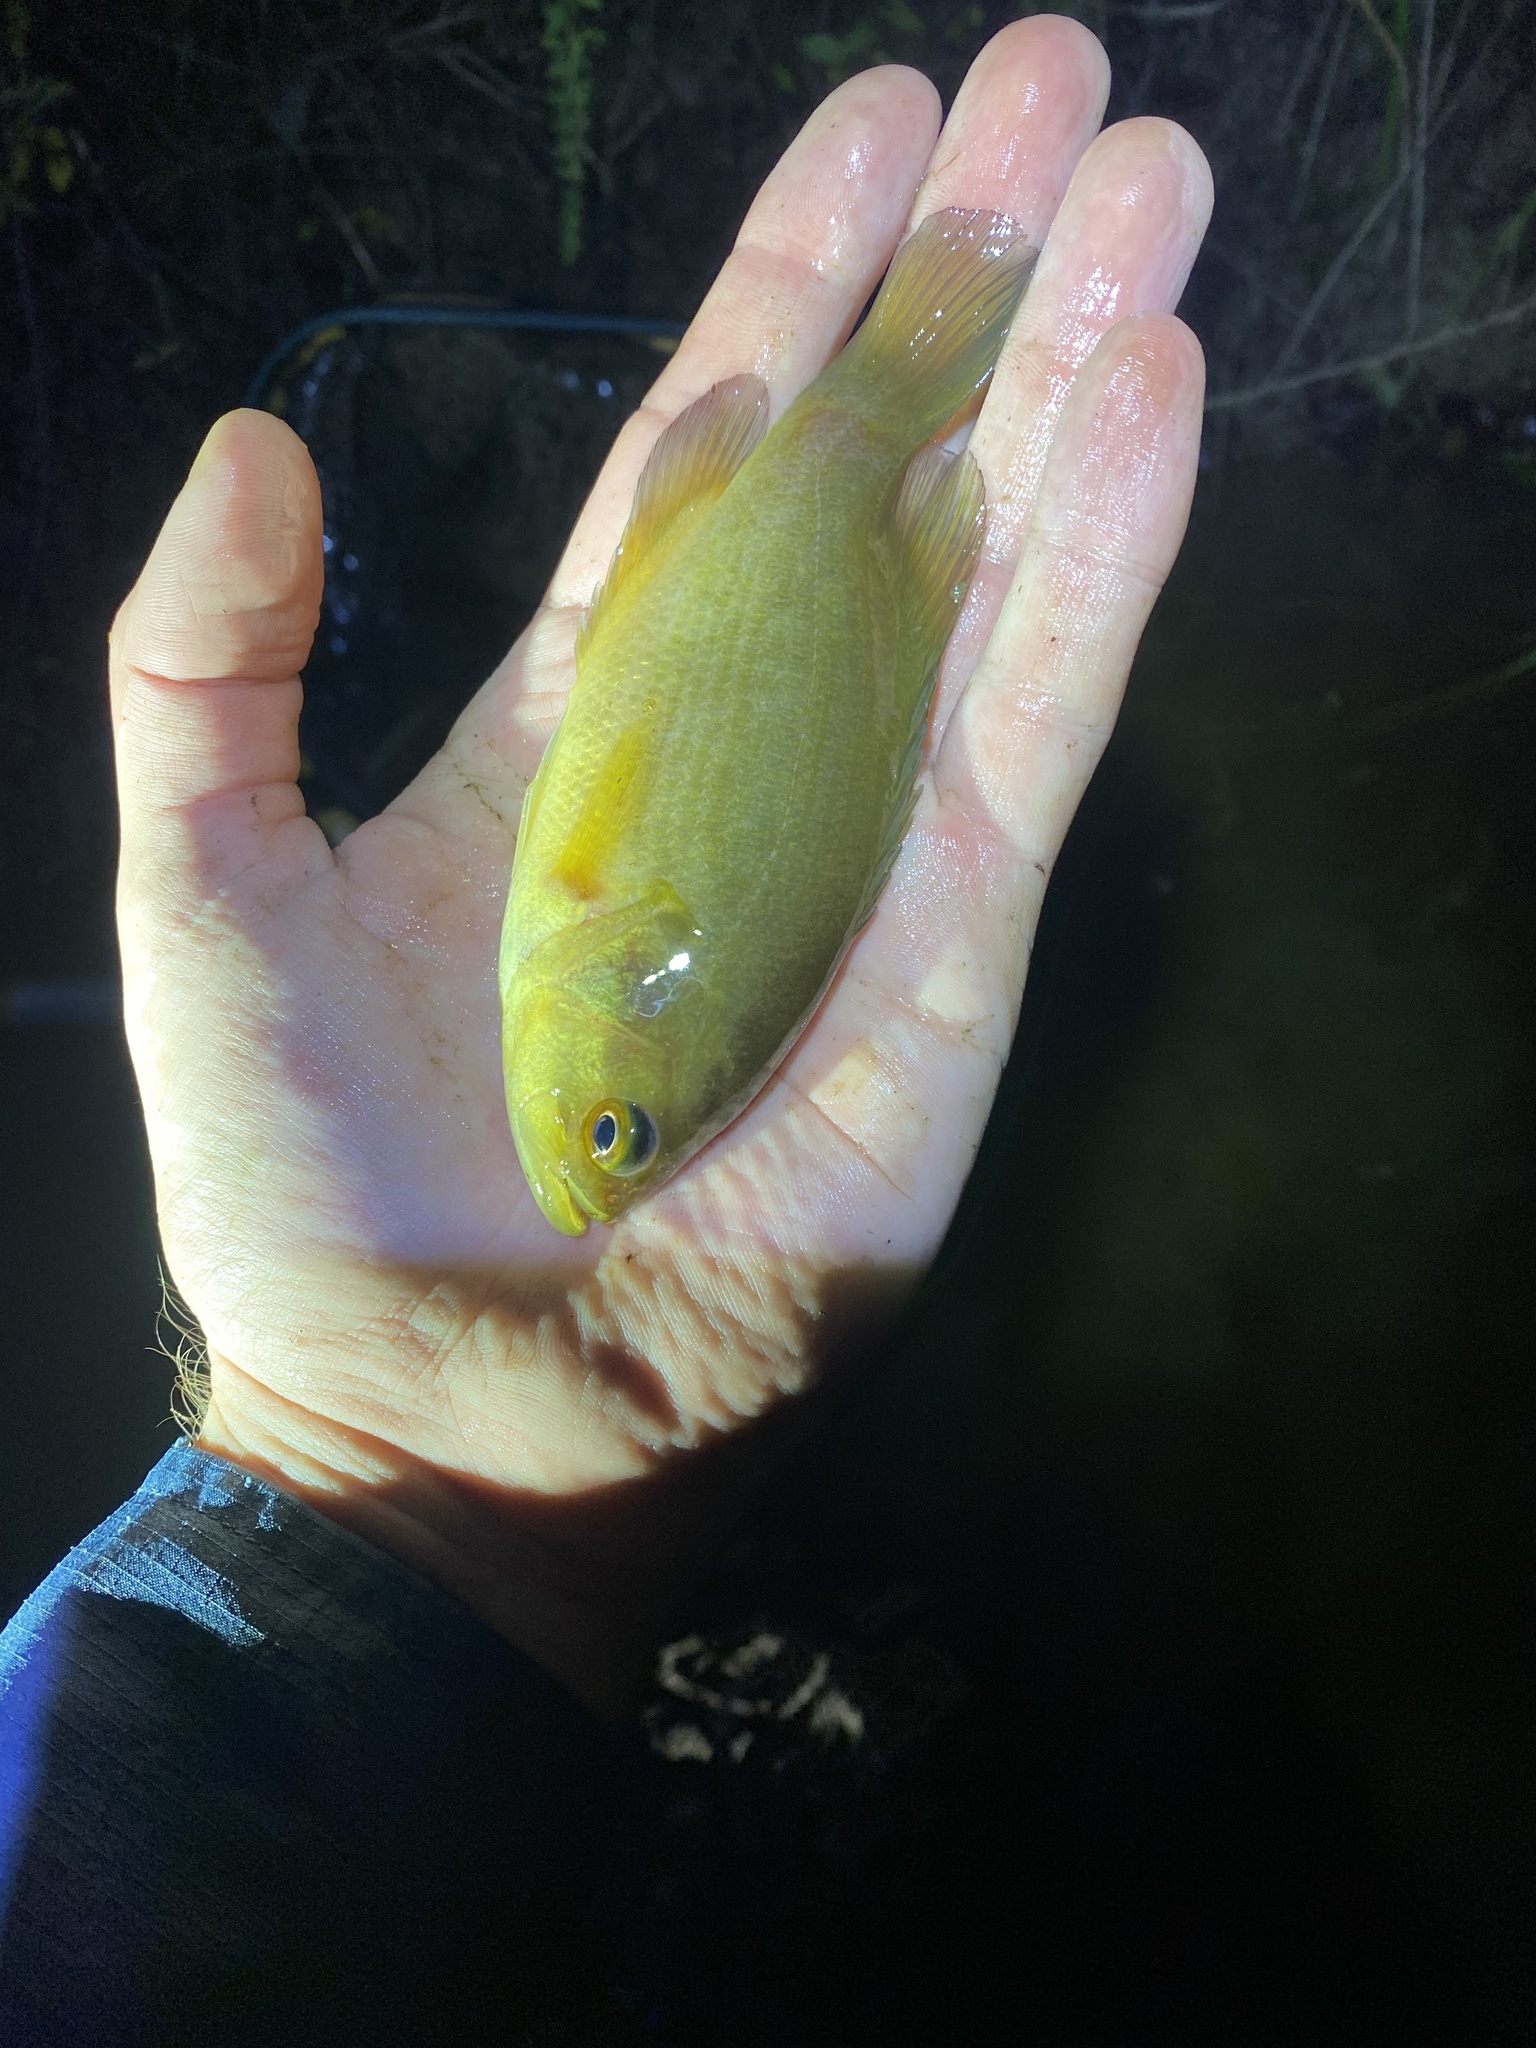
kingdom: Animalia
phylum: Chordata
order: Perciformes
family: Centrarchidae
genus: Acantharchus
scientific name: Acantharchus pomotis
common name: Mud sunfish
